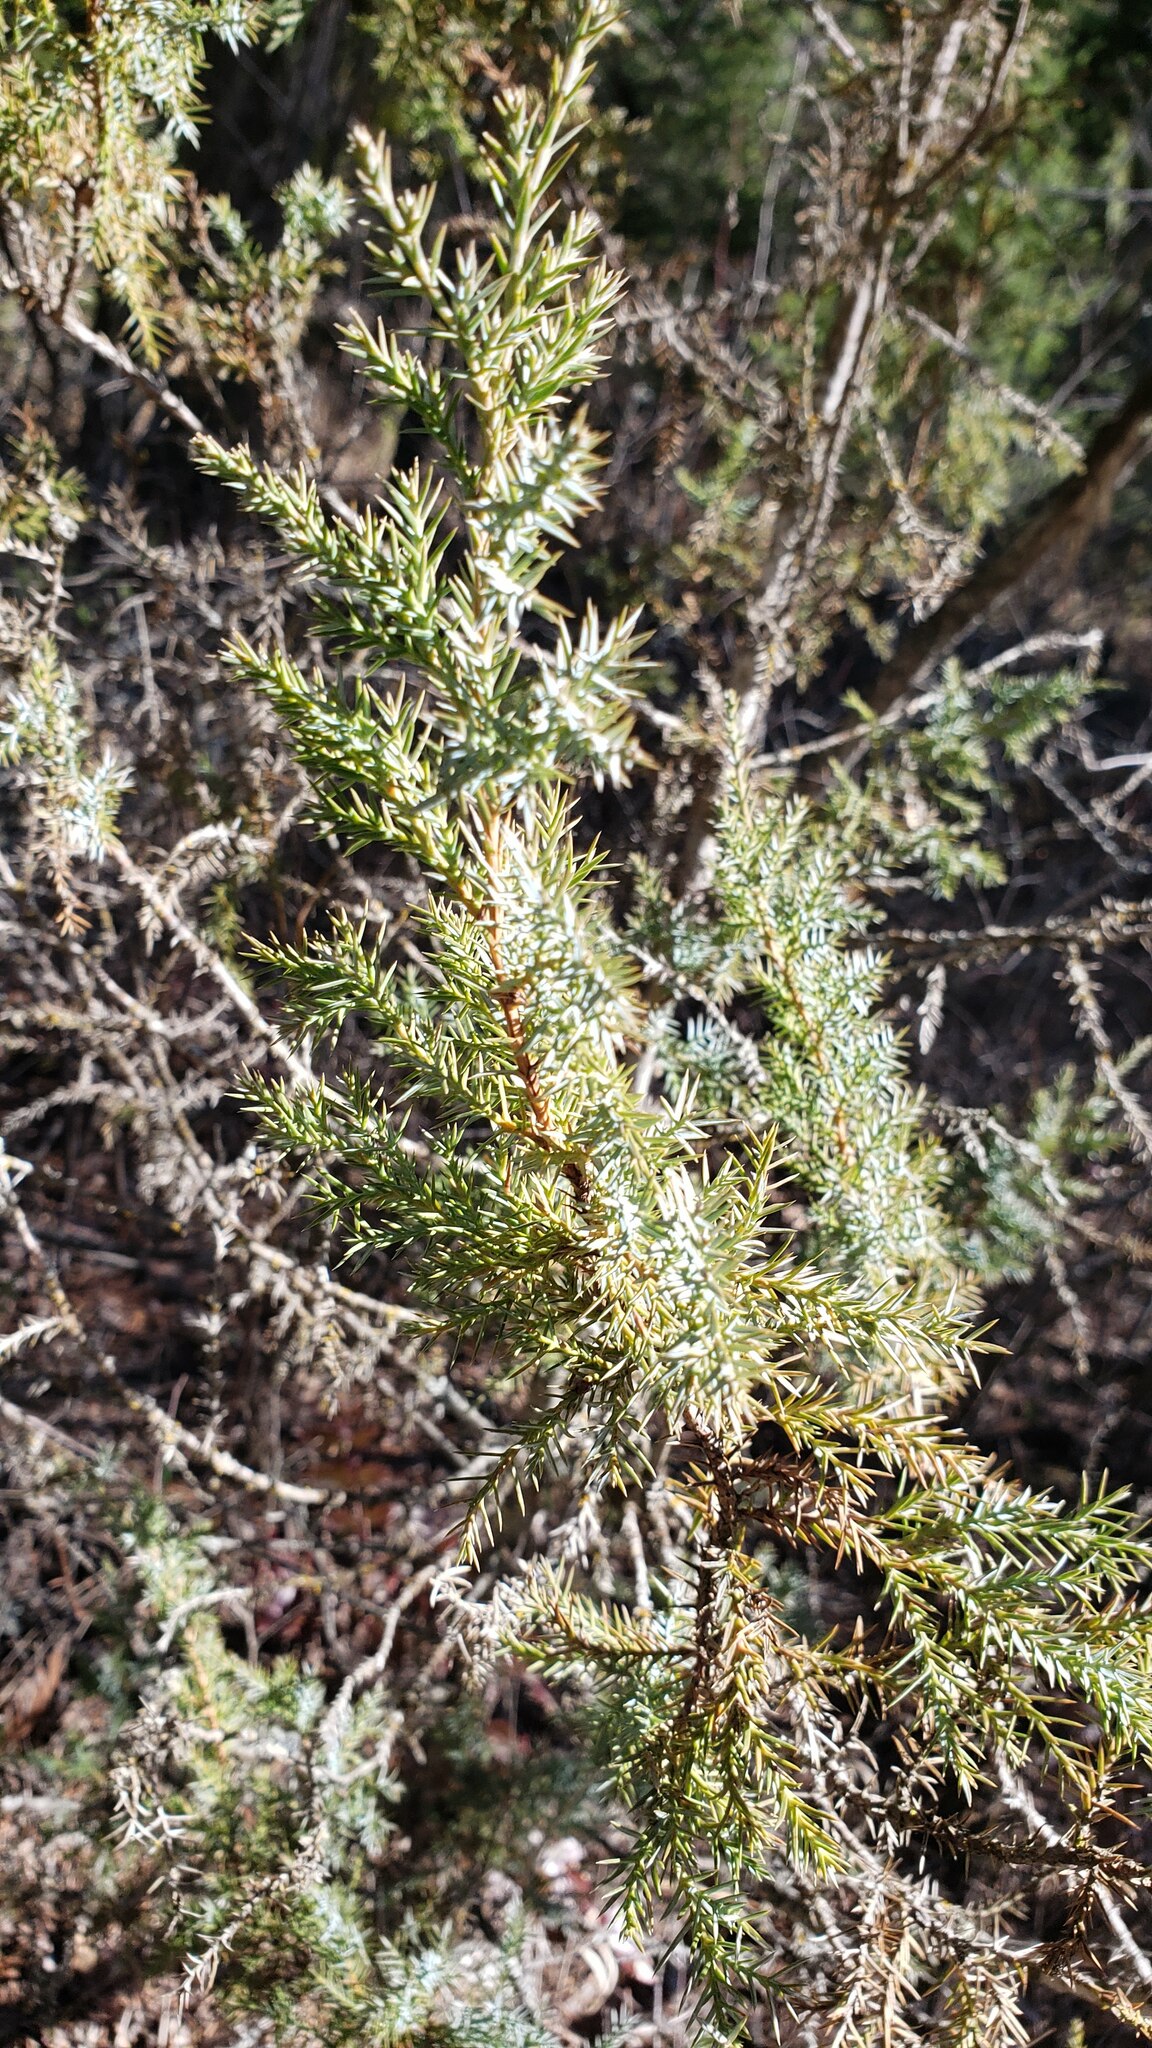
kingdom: Plantae
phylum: Tracheophyta
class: Pinopsida
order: Pinales
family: Cupressaceae
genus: Juniperus
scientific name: Juniperus scopulorum
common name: Rocky mountain juniper
